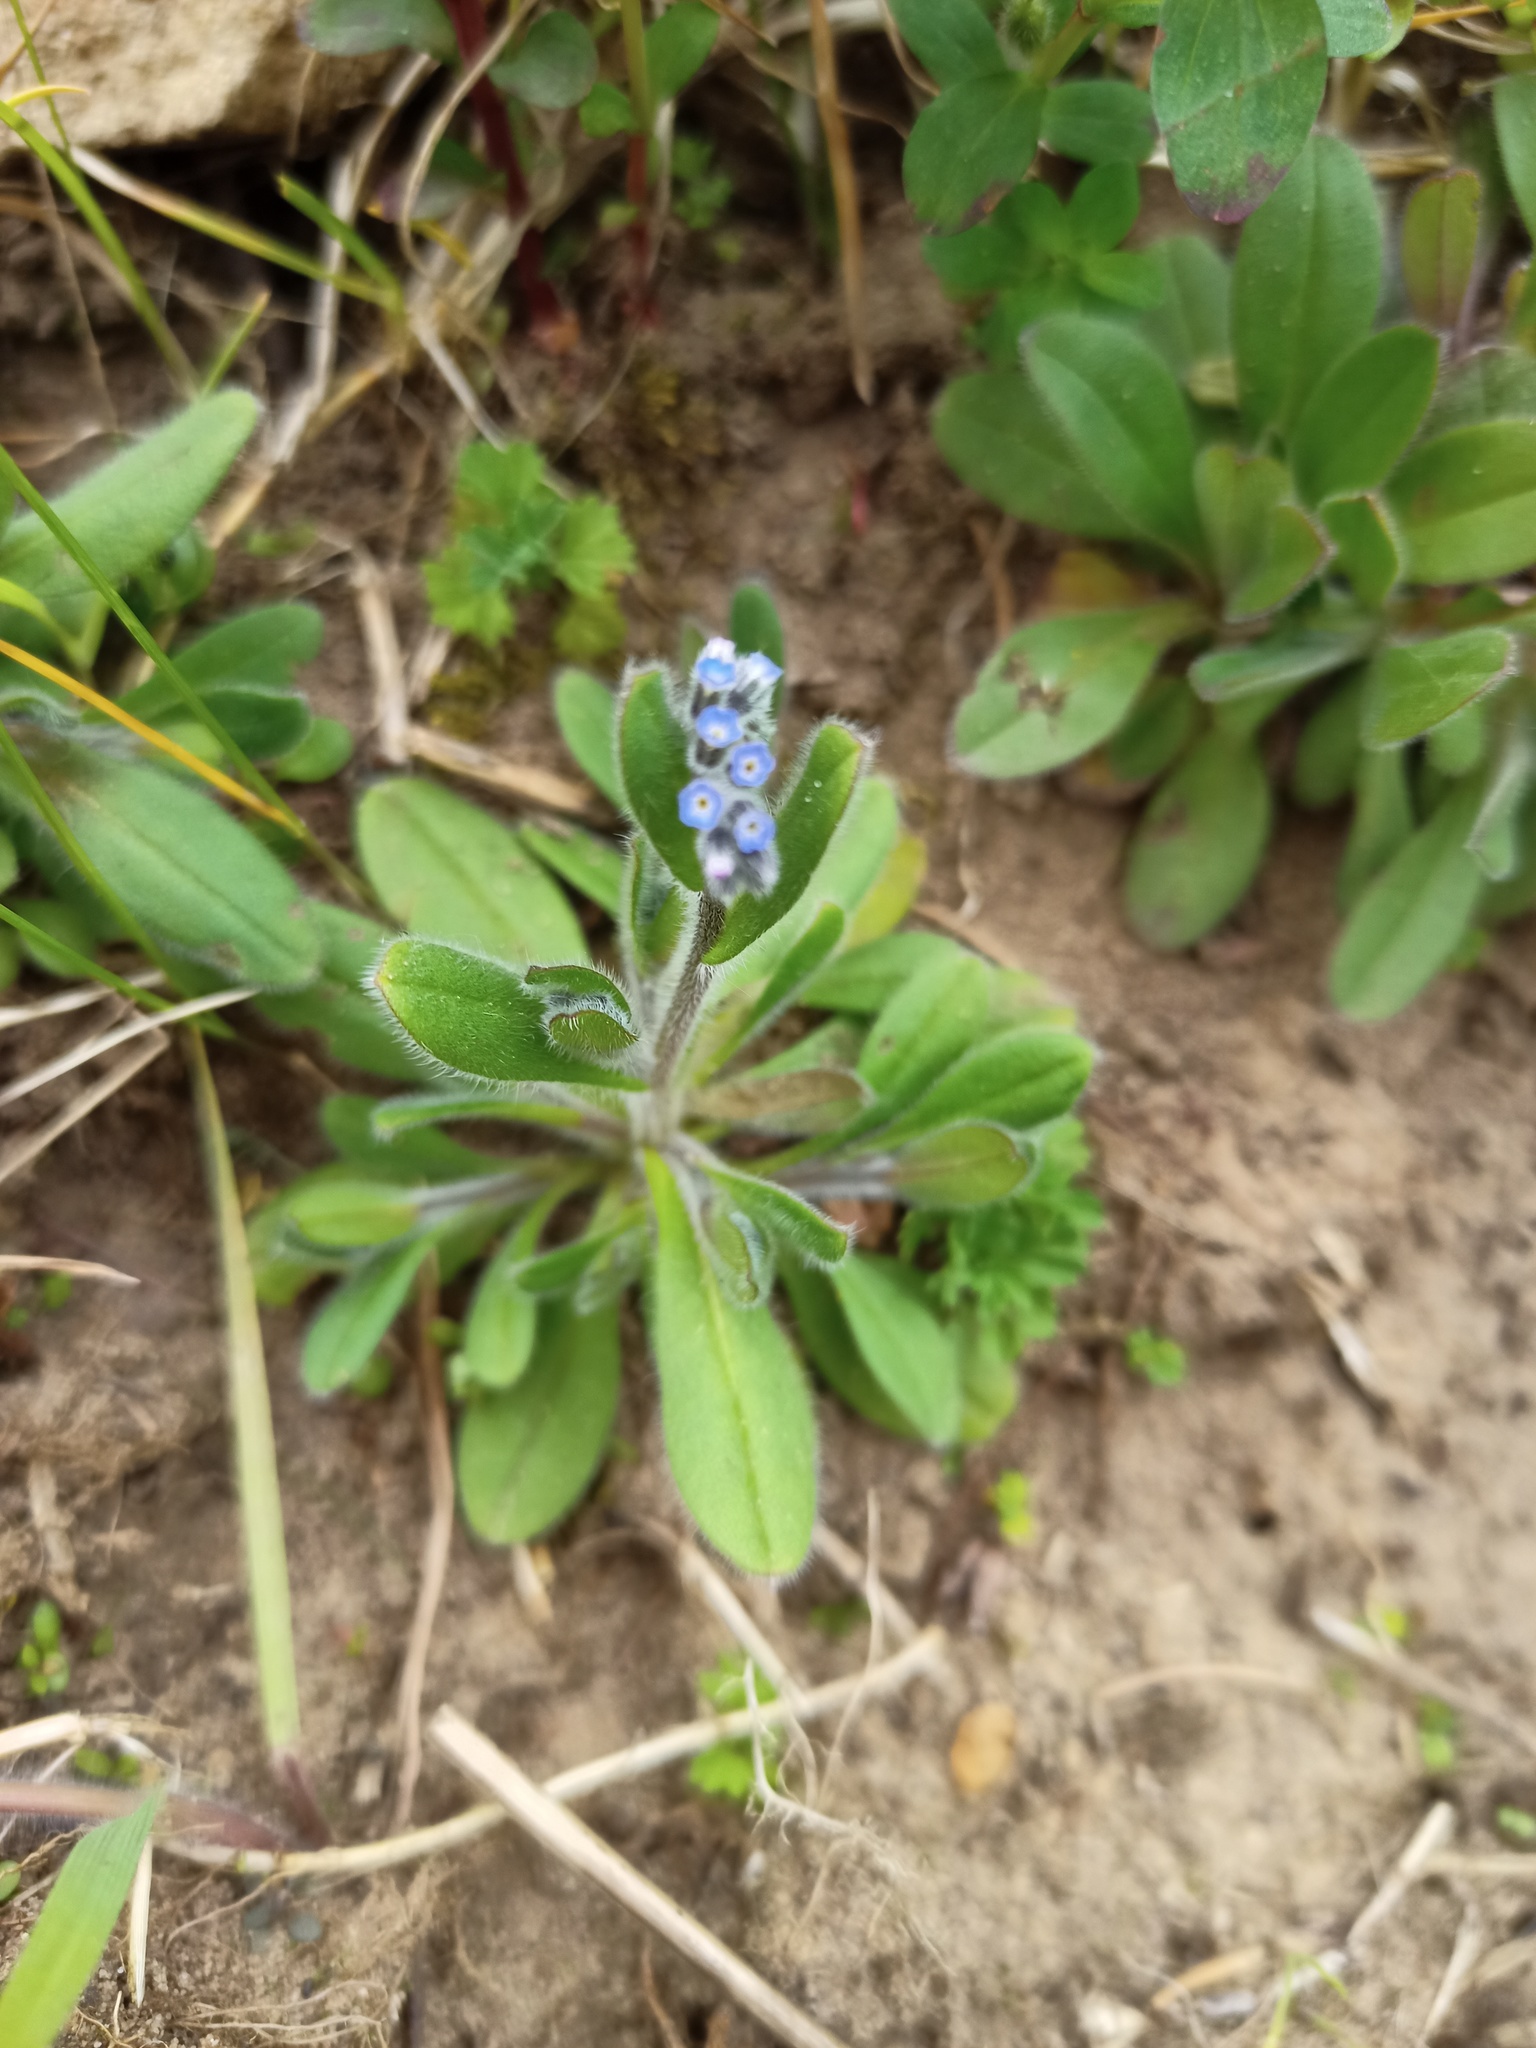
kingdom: Plantae
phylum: Tracheophyta
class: Magnoliopsida
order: Boraginales
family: Boraginaceae
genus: Myosotis
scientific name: Myosotis arvensis
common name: Field forget-me-not
